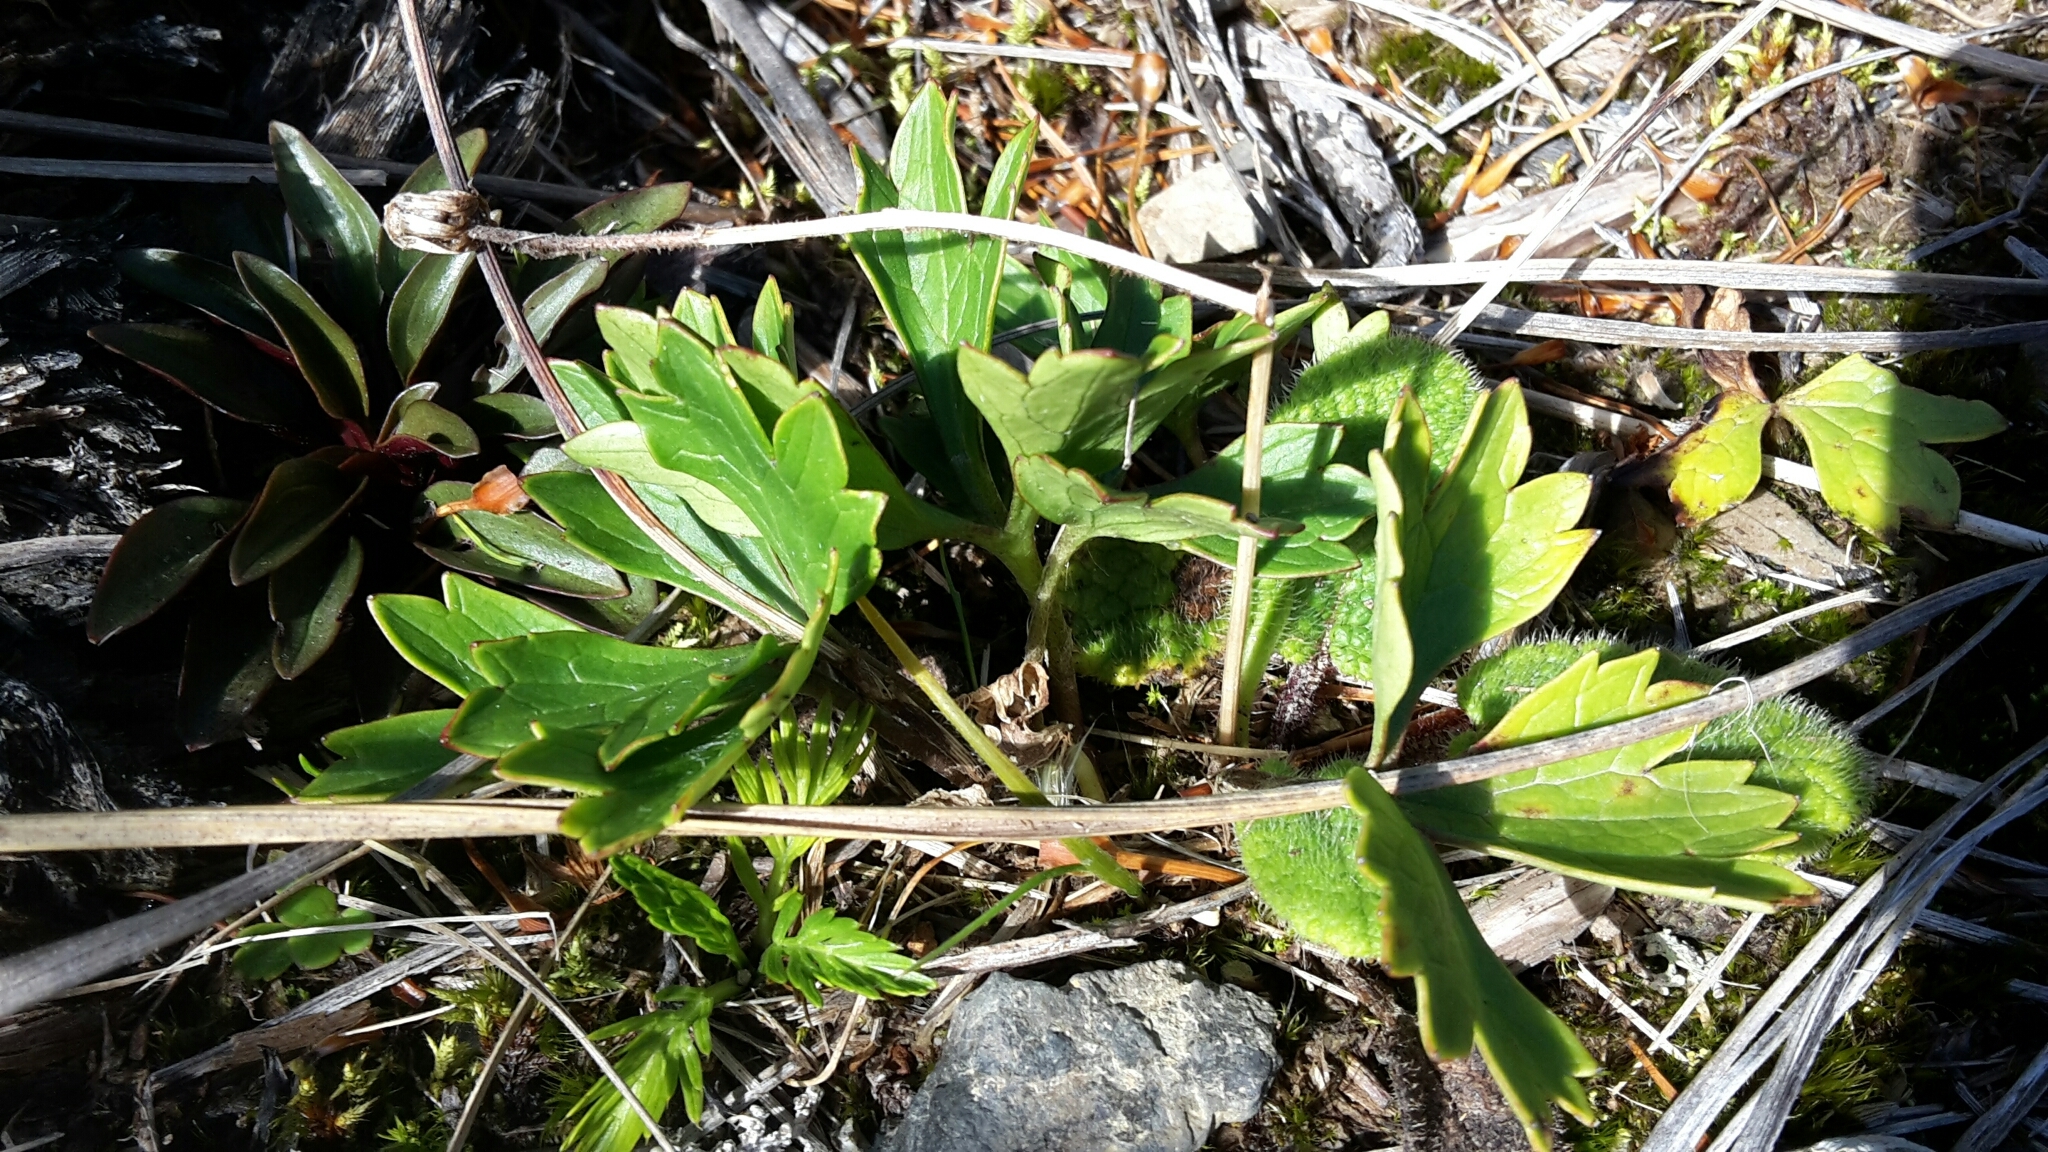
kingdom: Plantae
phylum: Tracheophyta
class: Magnoliopsida
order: Ranunculales
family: Ranunculaceae
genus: Ranunculus
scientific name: Ranunculus verticillatus
